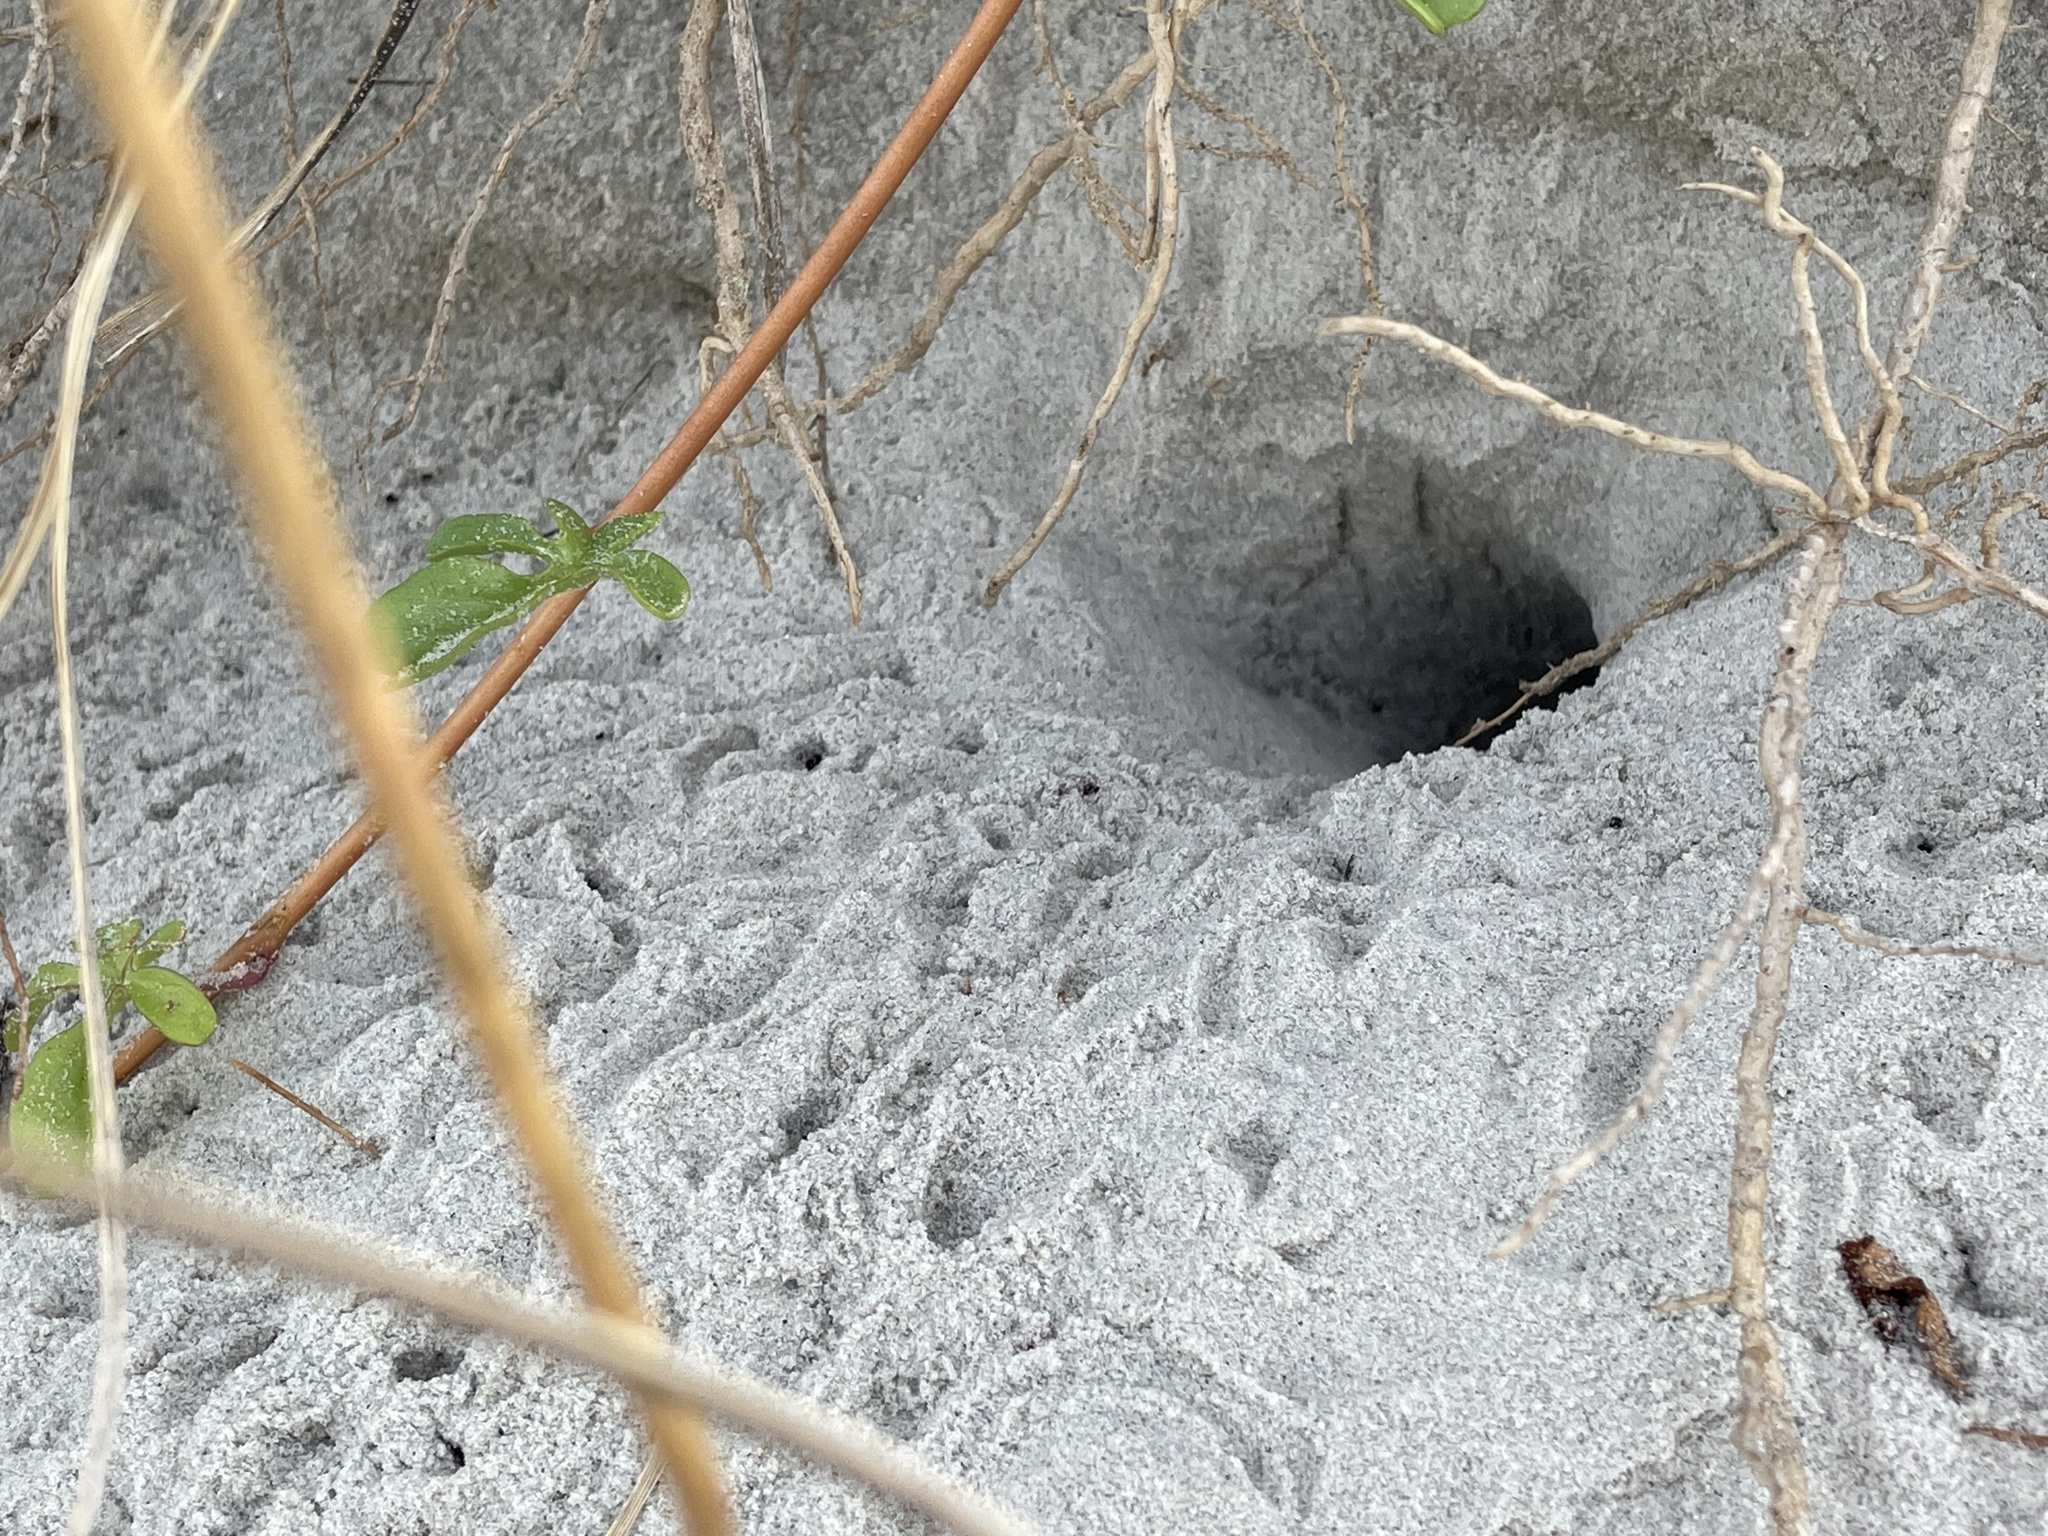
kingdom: Animalia
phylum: Arthropoda
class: Malacostraca
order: Decapoda
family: Ocypodidae
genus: Ocypode
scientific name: Ocypode quadrata
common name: Ghost crab
